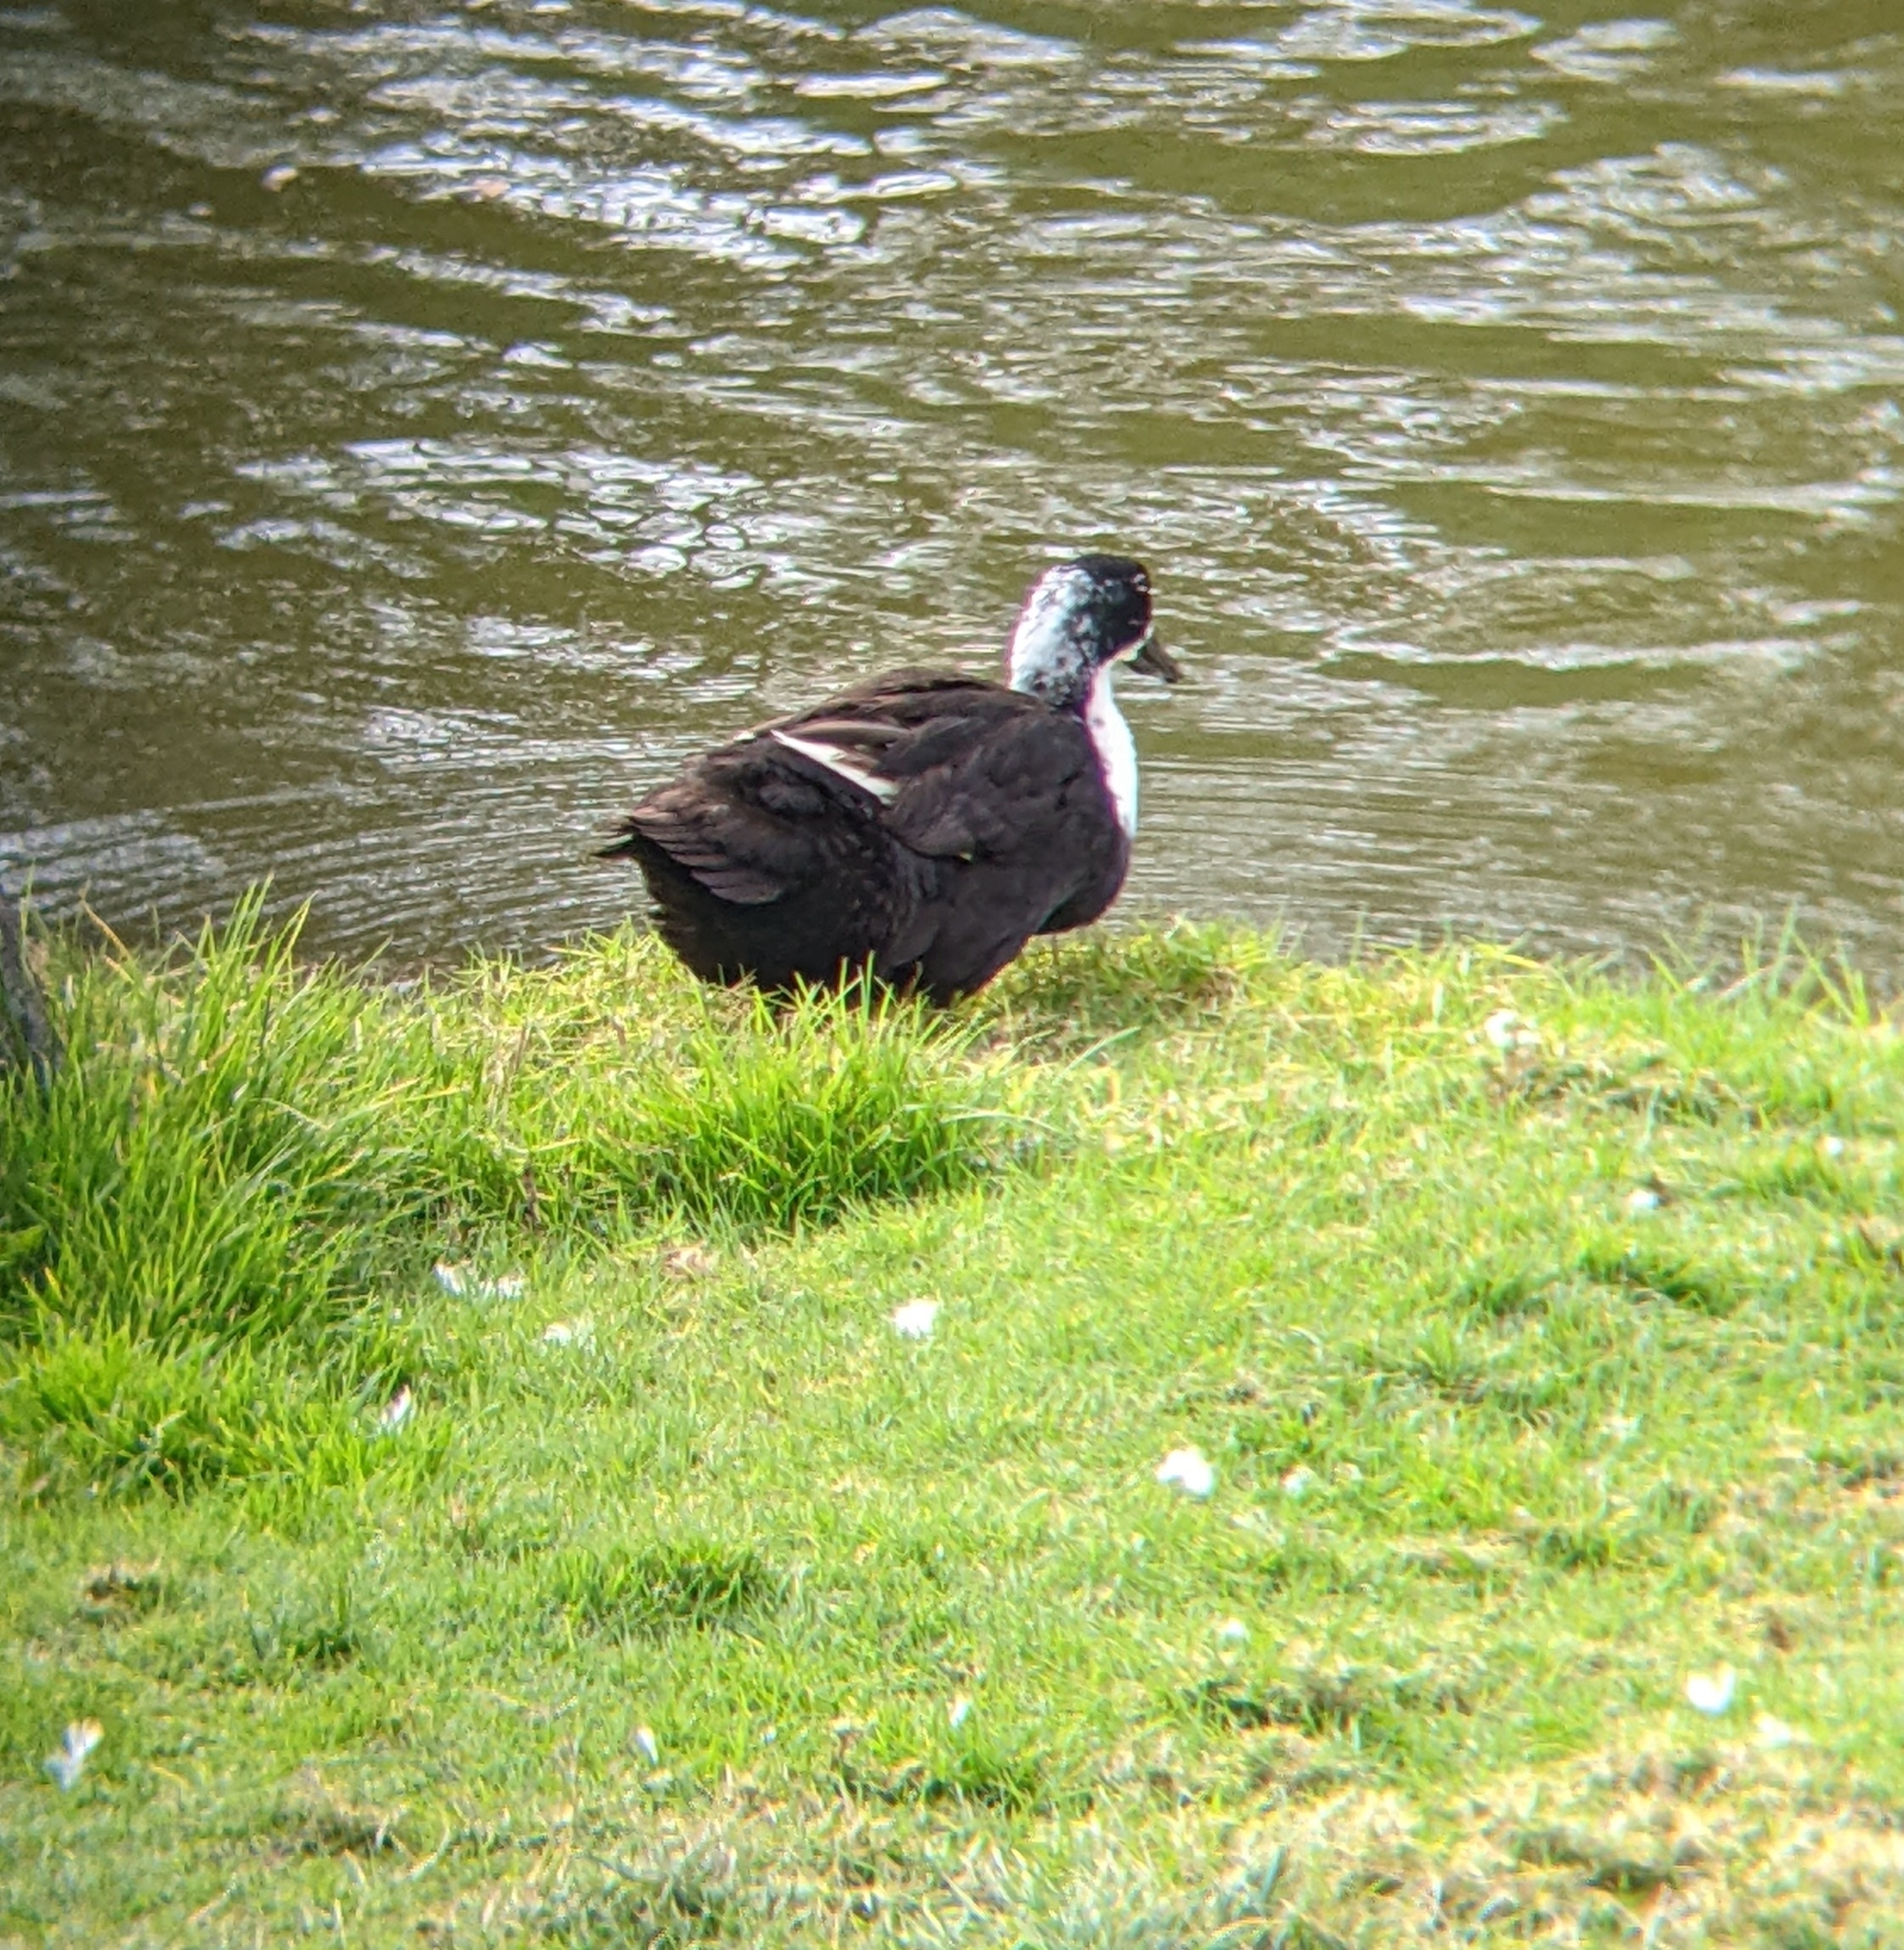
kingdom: Animalia
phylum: Chordata
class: Aves
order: Anseriformes
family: Anatidae
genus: Anas
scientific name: Anas platyrhynchos
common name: Mallard
